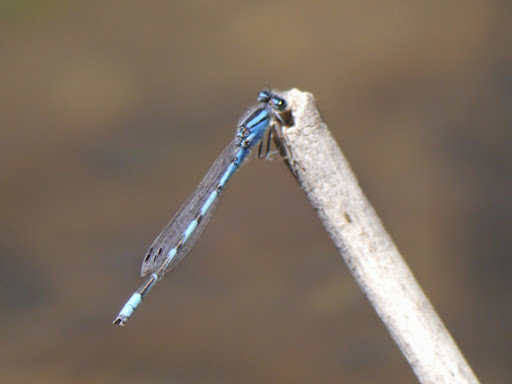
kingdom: Animalia
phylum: Arthropoda
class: Insecta
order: Odonata
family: Coenagrionidae
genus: Enallagma
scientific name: Enallagma civile
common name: Damselfly
